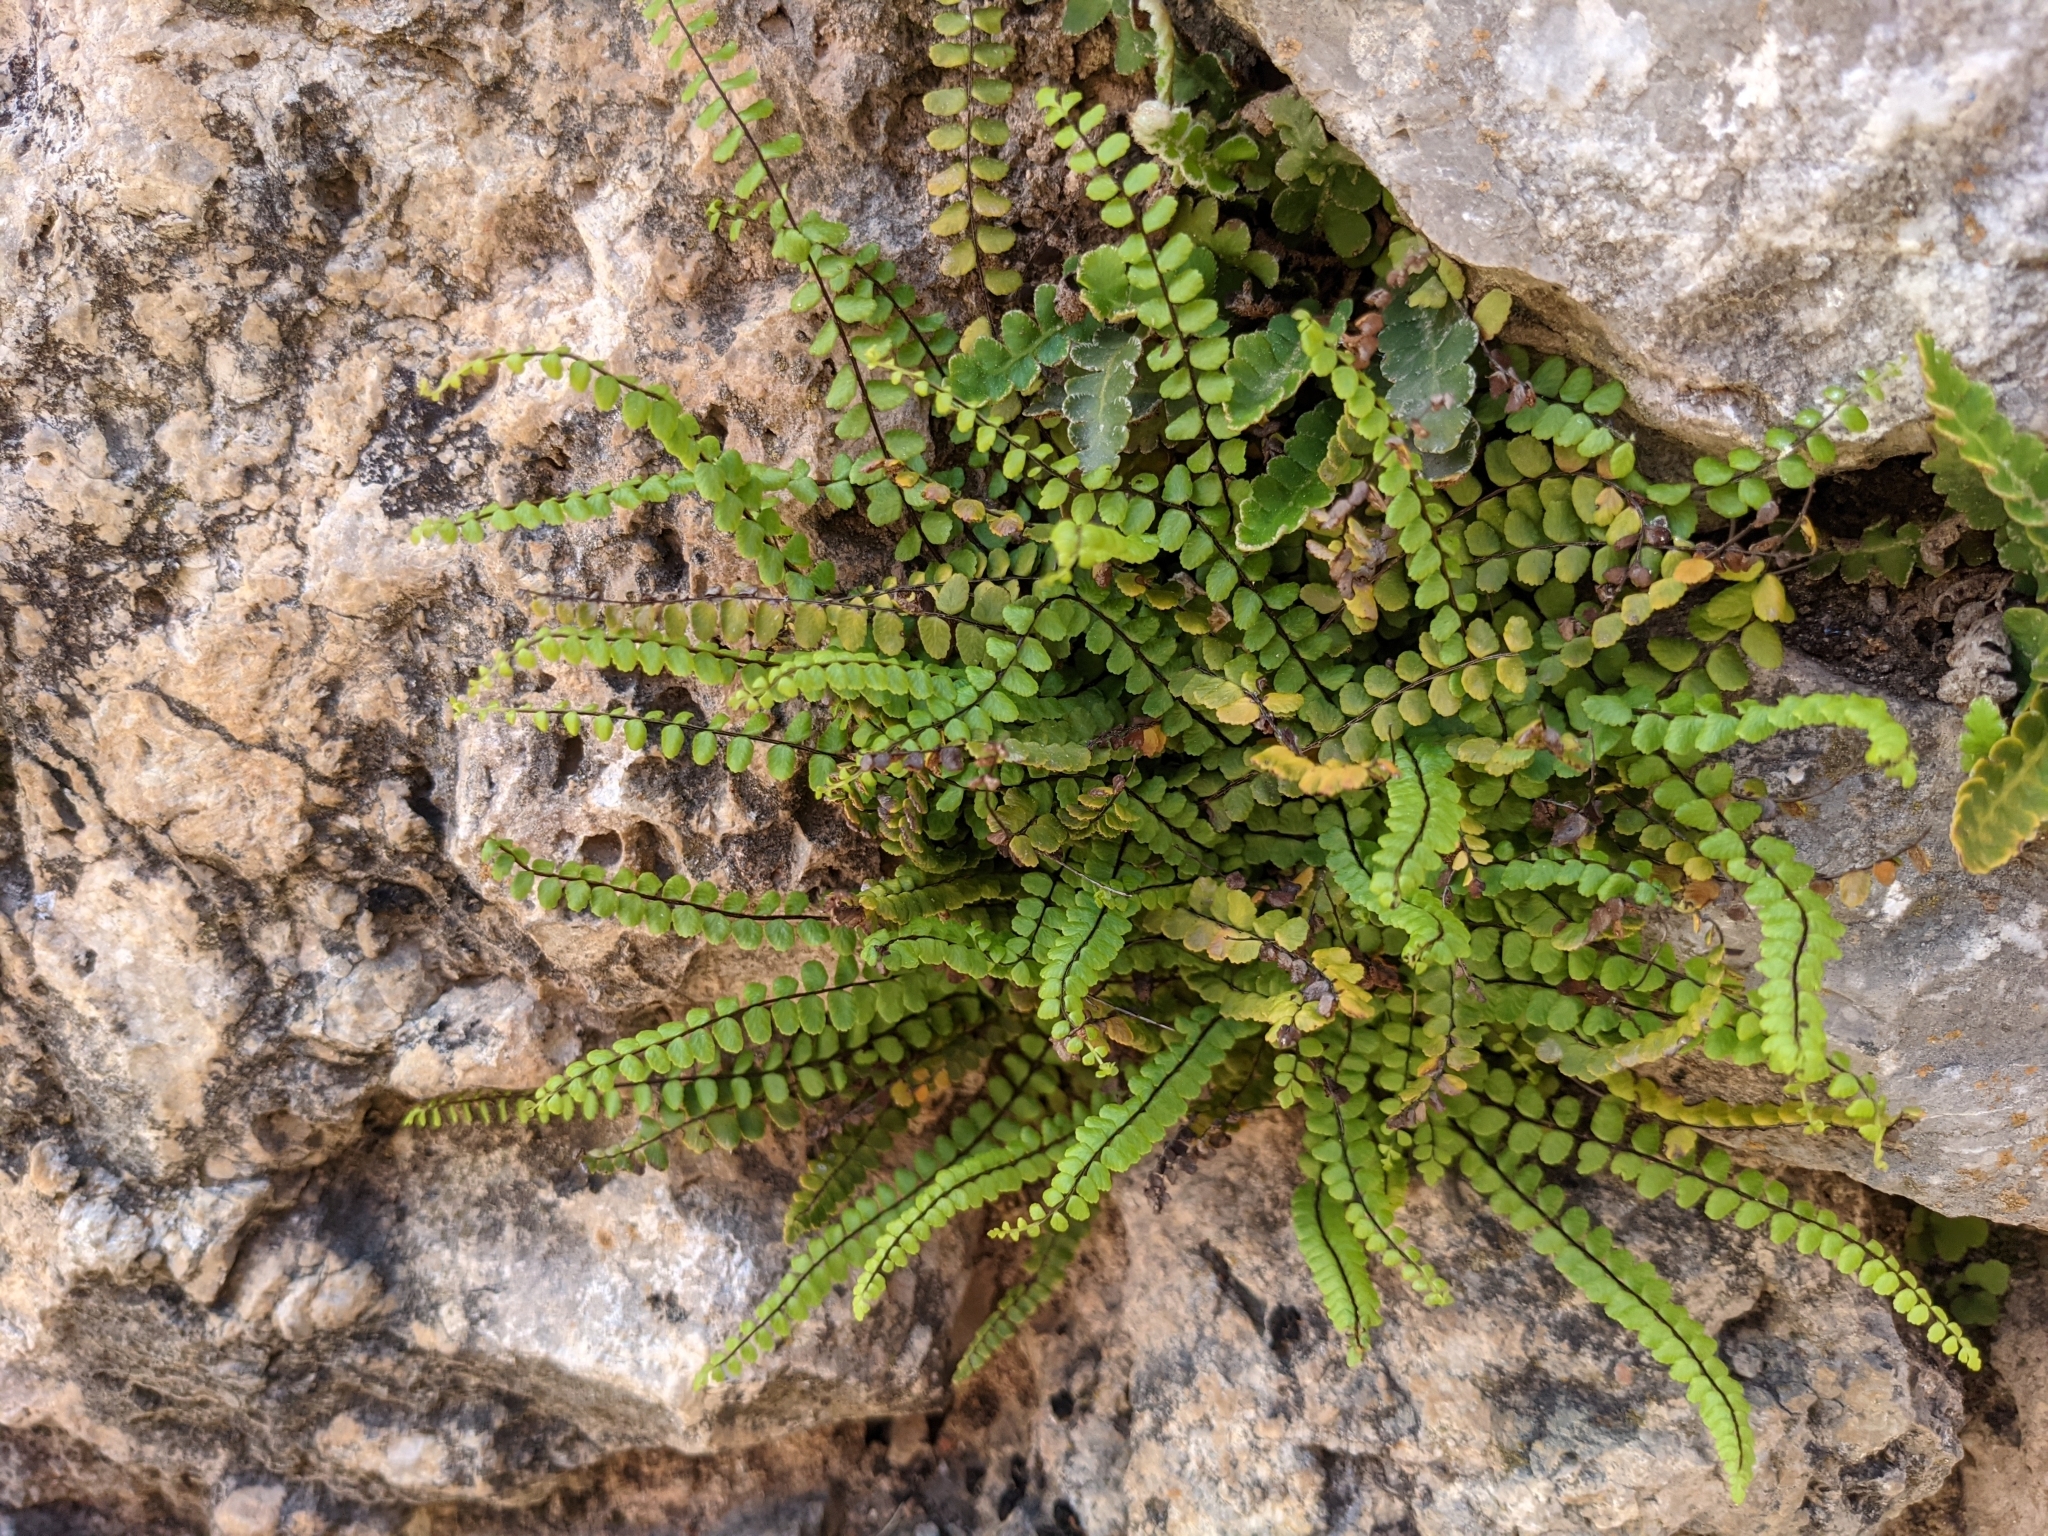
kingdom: Plantae
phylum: Tracheophyta
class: Polypodiopsida
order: Polypodiales
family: Aspleniaceae
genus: Asplenium
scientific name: Asplenium trichomanes
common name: Maidenhair spleenwort
